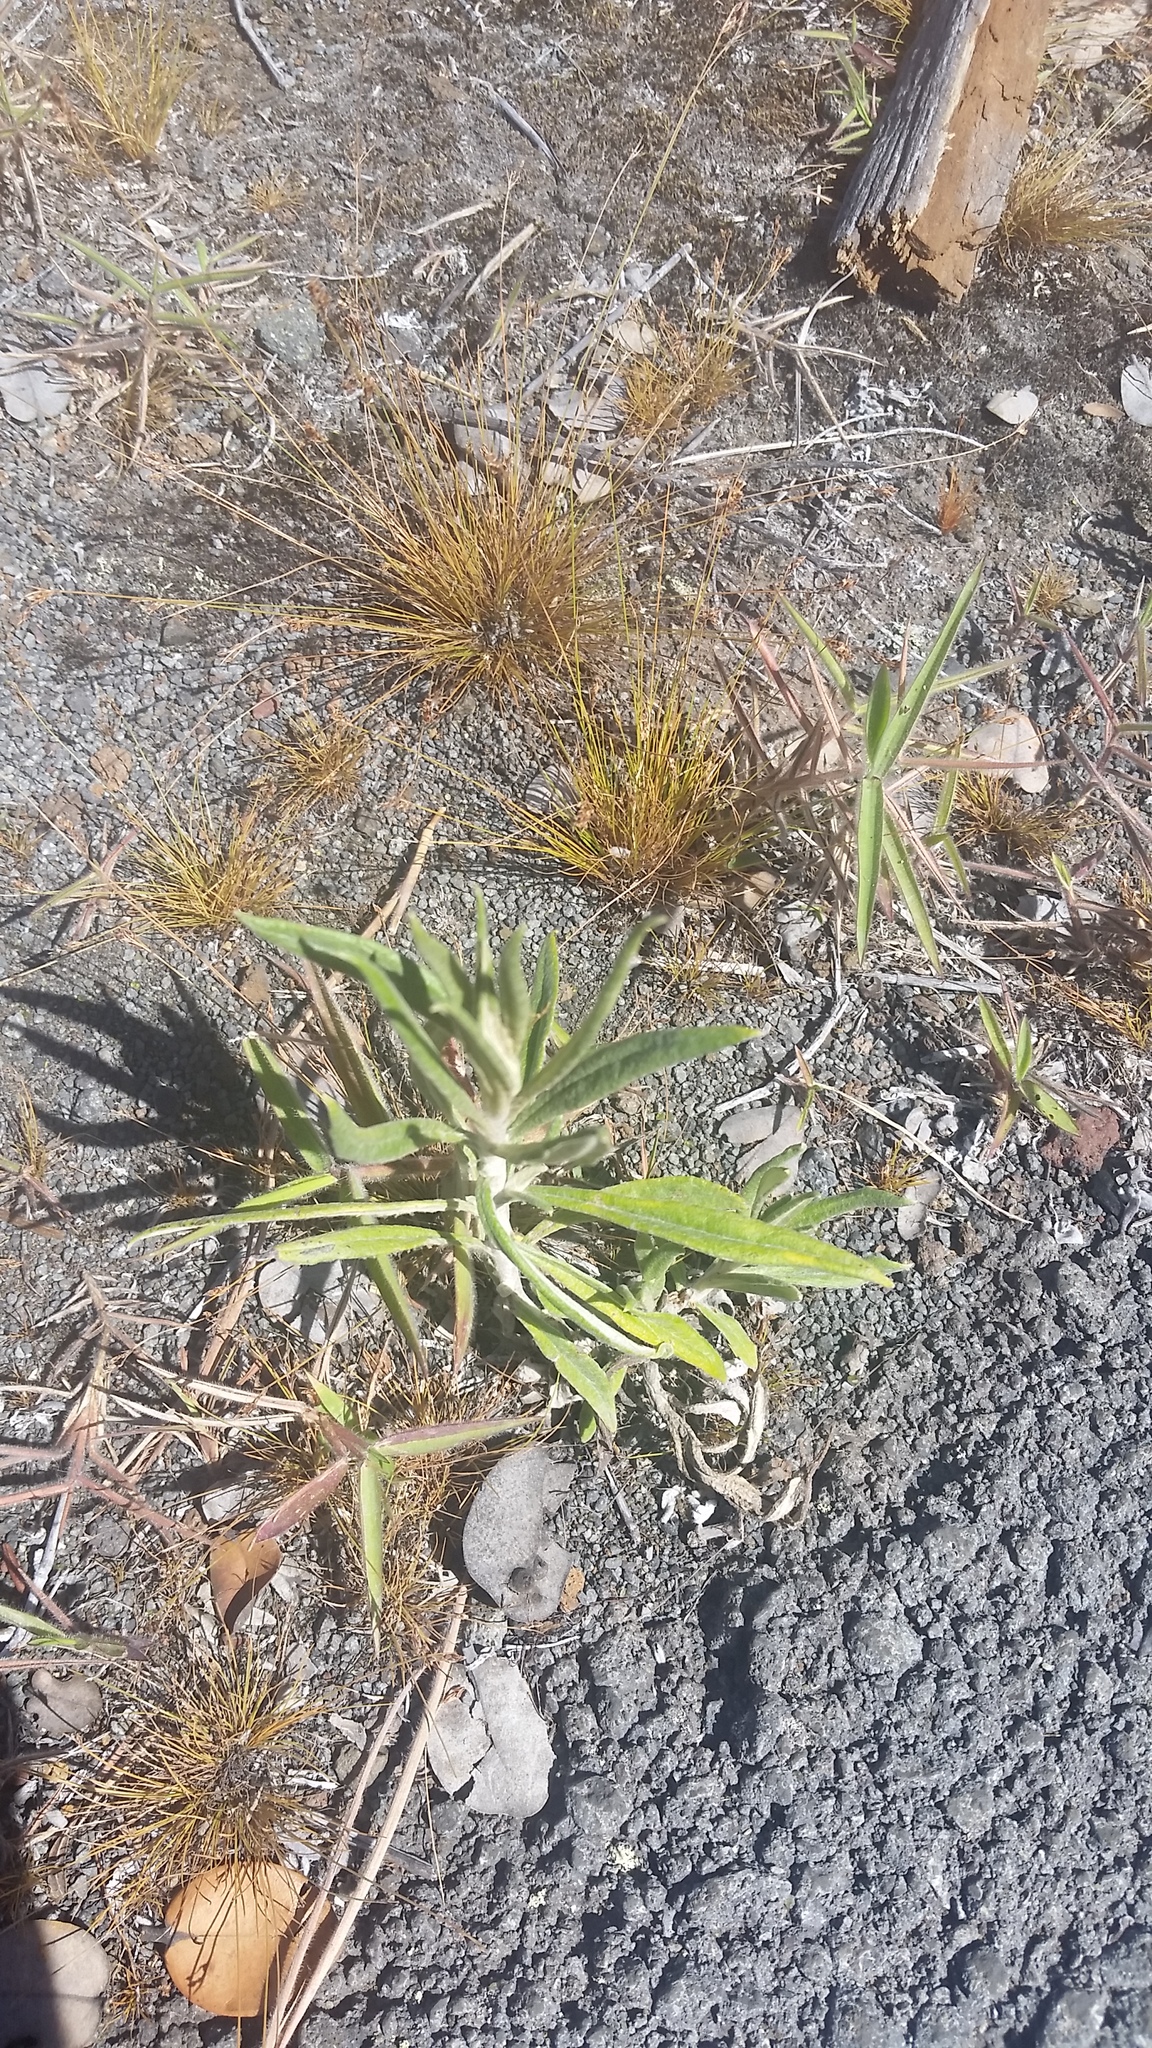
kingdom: Plantae
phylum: Tracheophyta
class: Magnoliopsida
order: Asterales
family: Asteraceae
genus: Pseudognaphalium
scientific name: Pseudognaphalium attenuatum
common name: Tapered cudweed
